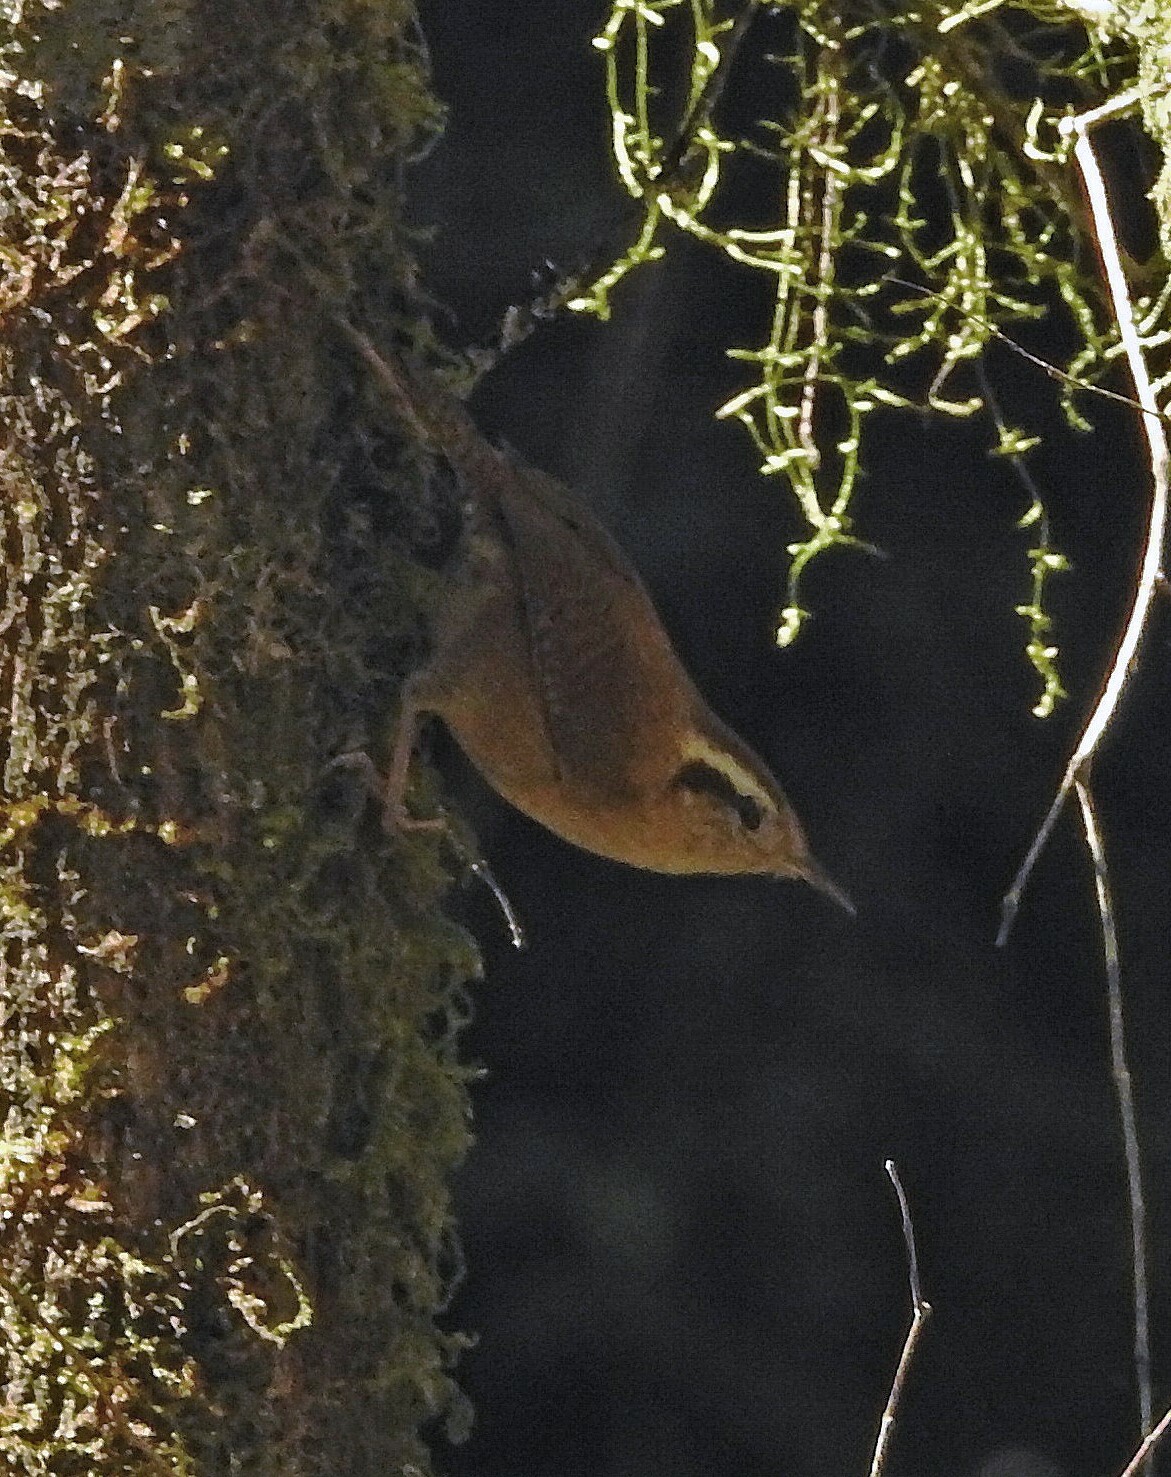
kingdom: Animalia
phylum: Chordata
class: Aves
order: Passeriformes
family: Troglodytidae
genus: Troglodytes
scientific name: Troglodytes solstitialis
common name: Mountain wren
